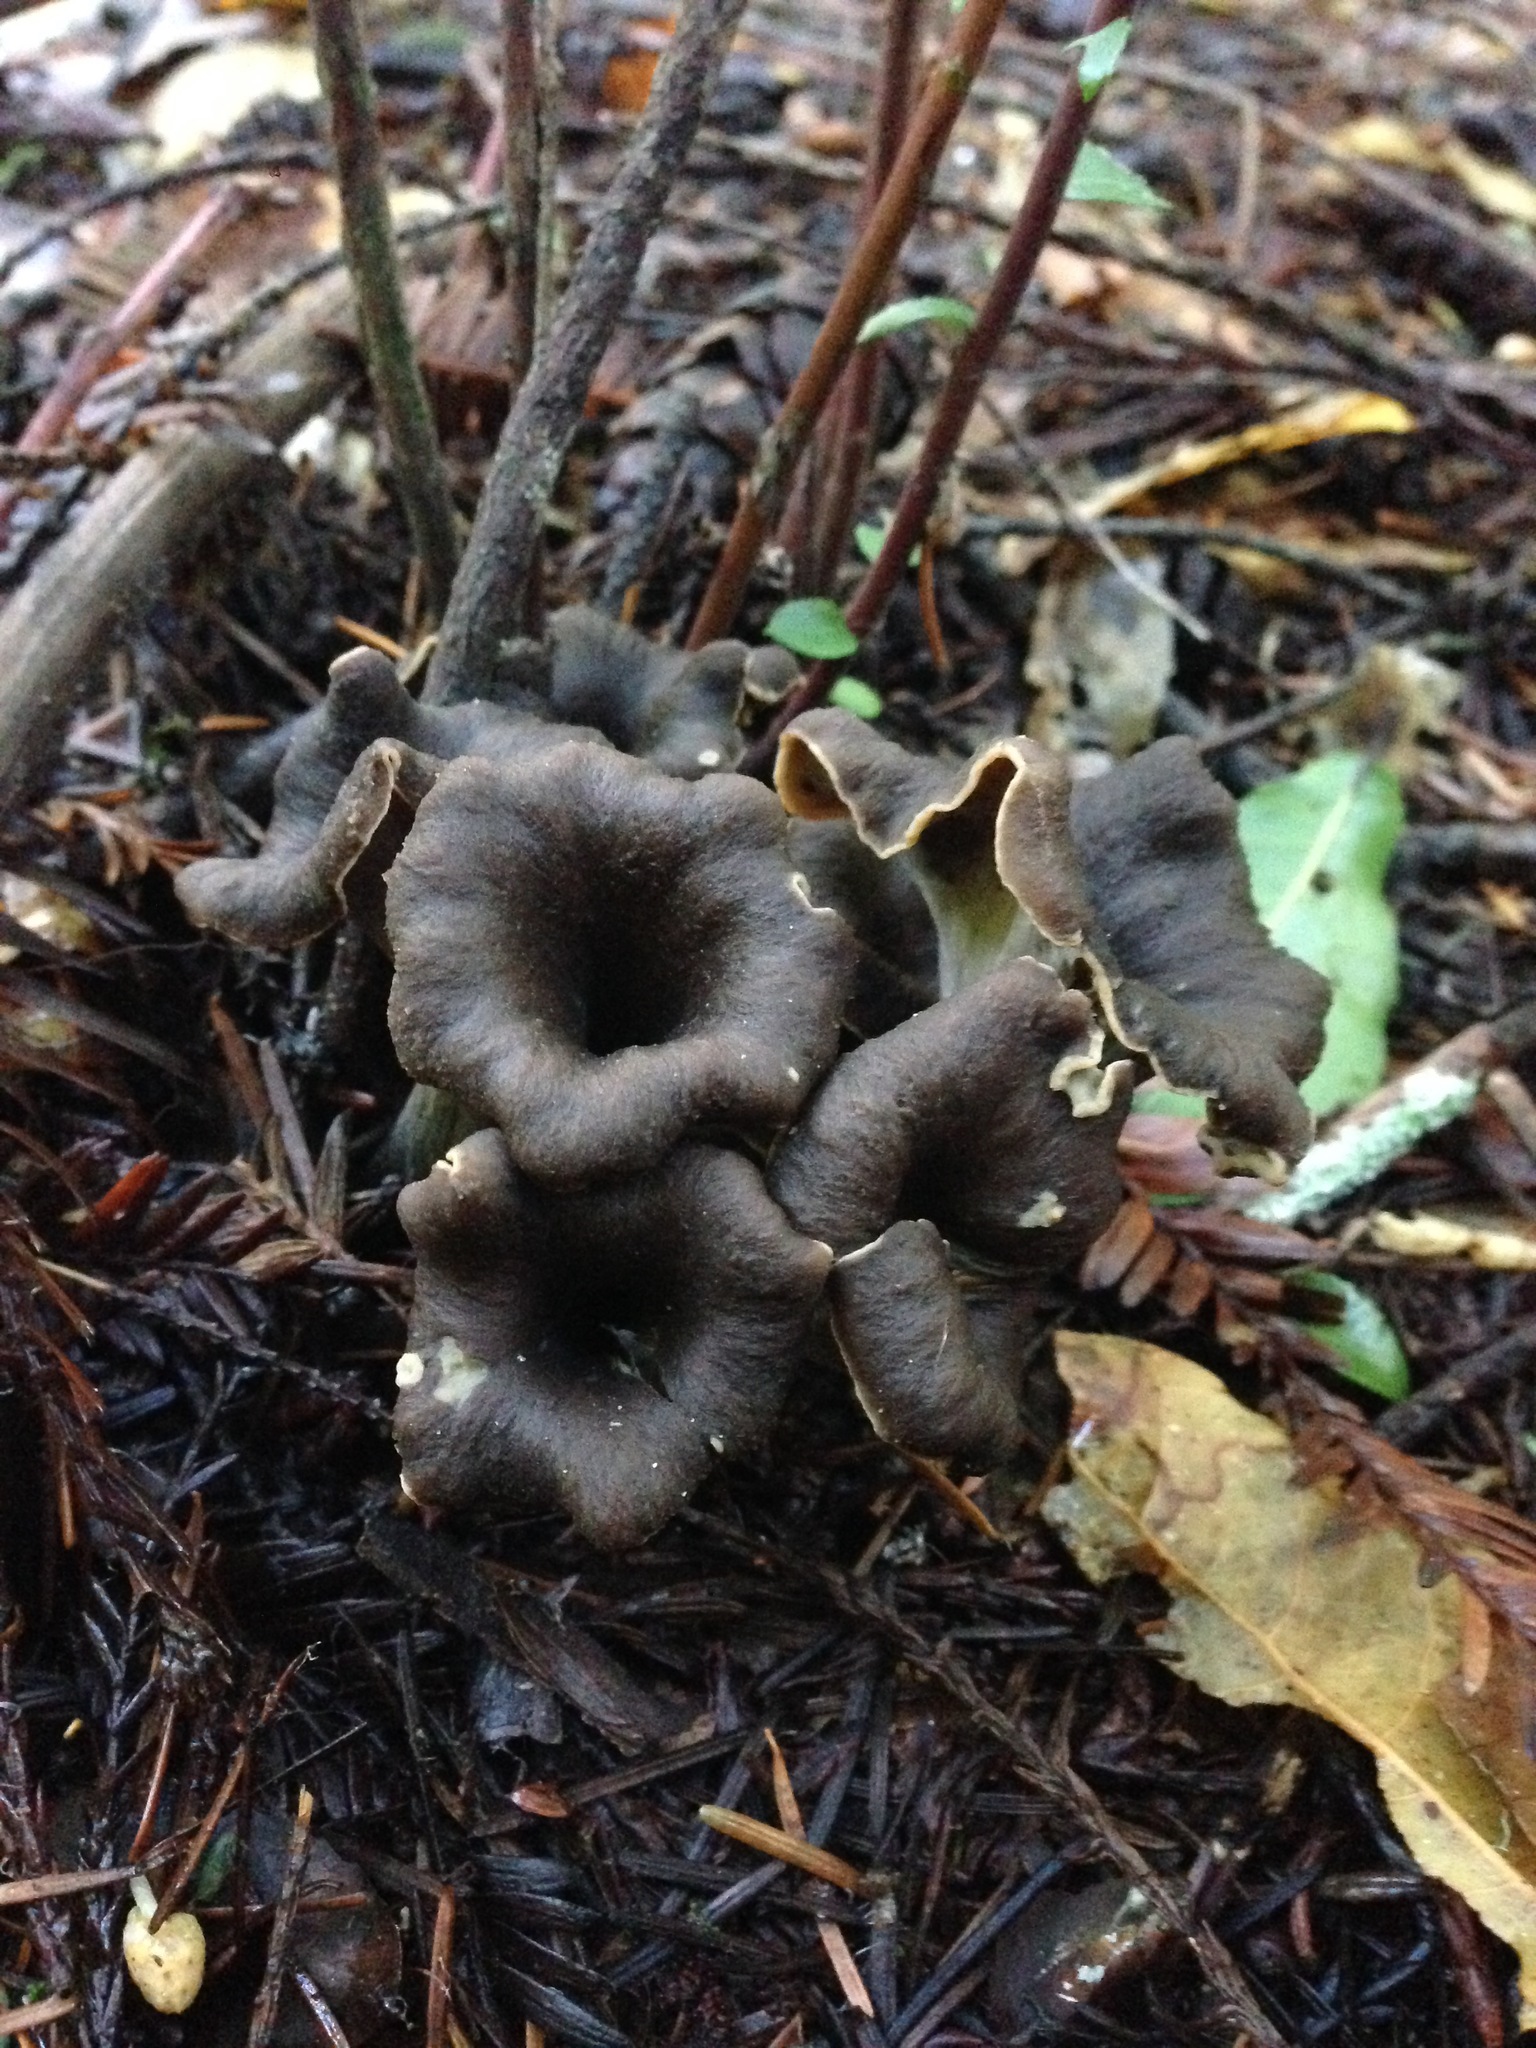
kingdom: Fungi
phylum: Basidiomycota
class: Agaricomycetes
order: Cantharellales
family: Hydnaceae
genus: Craterellus
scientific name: Craterellus calicornucopioides
